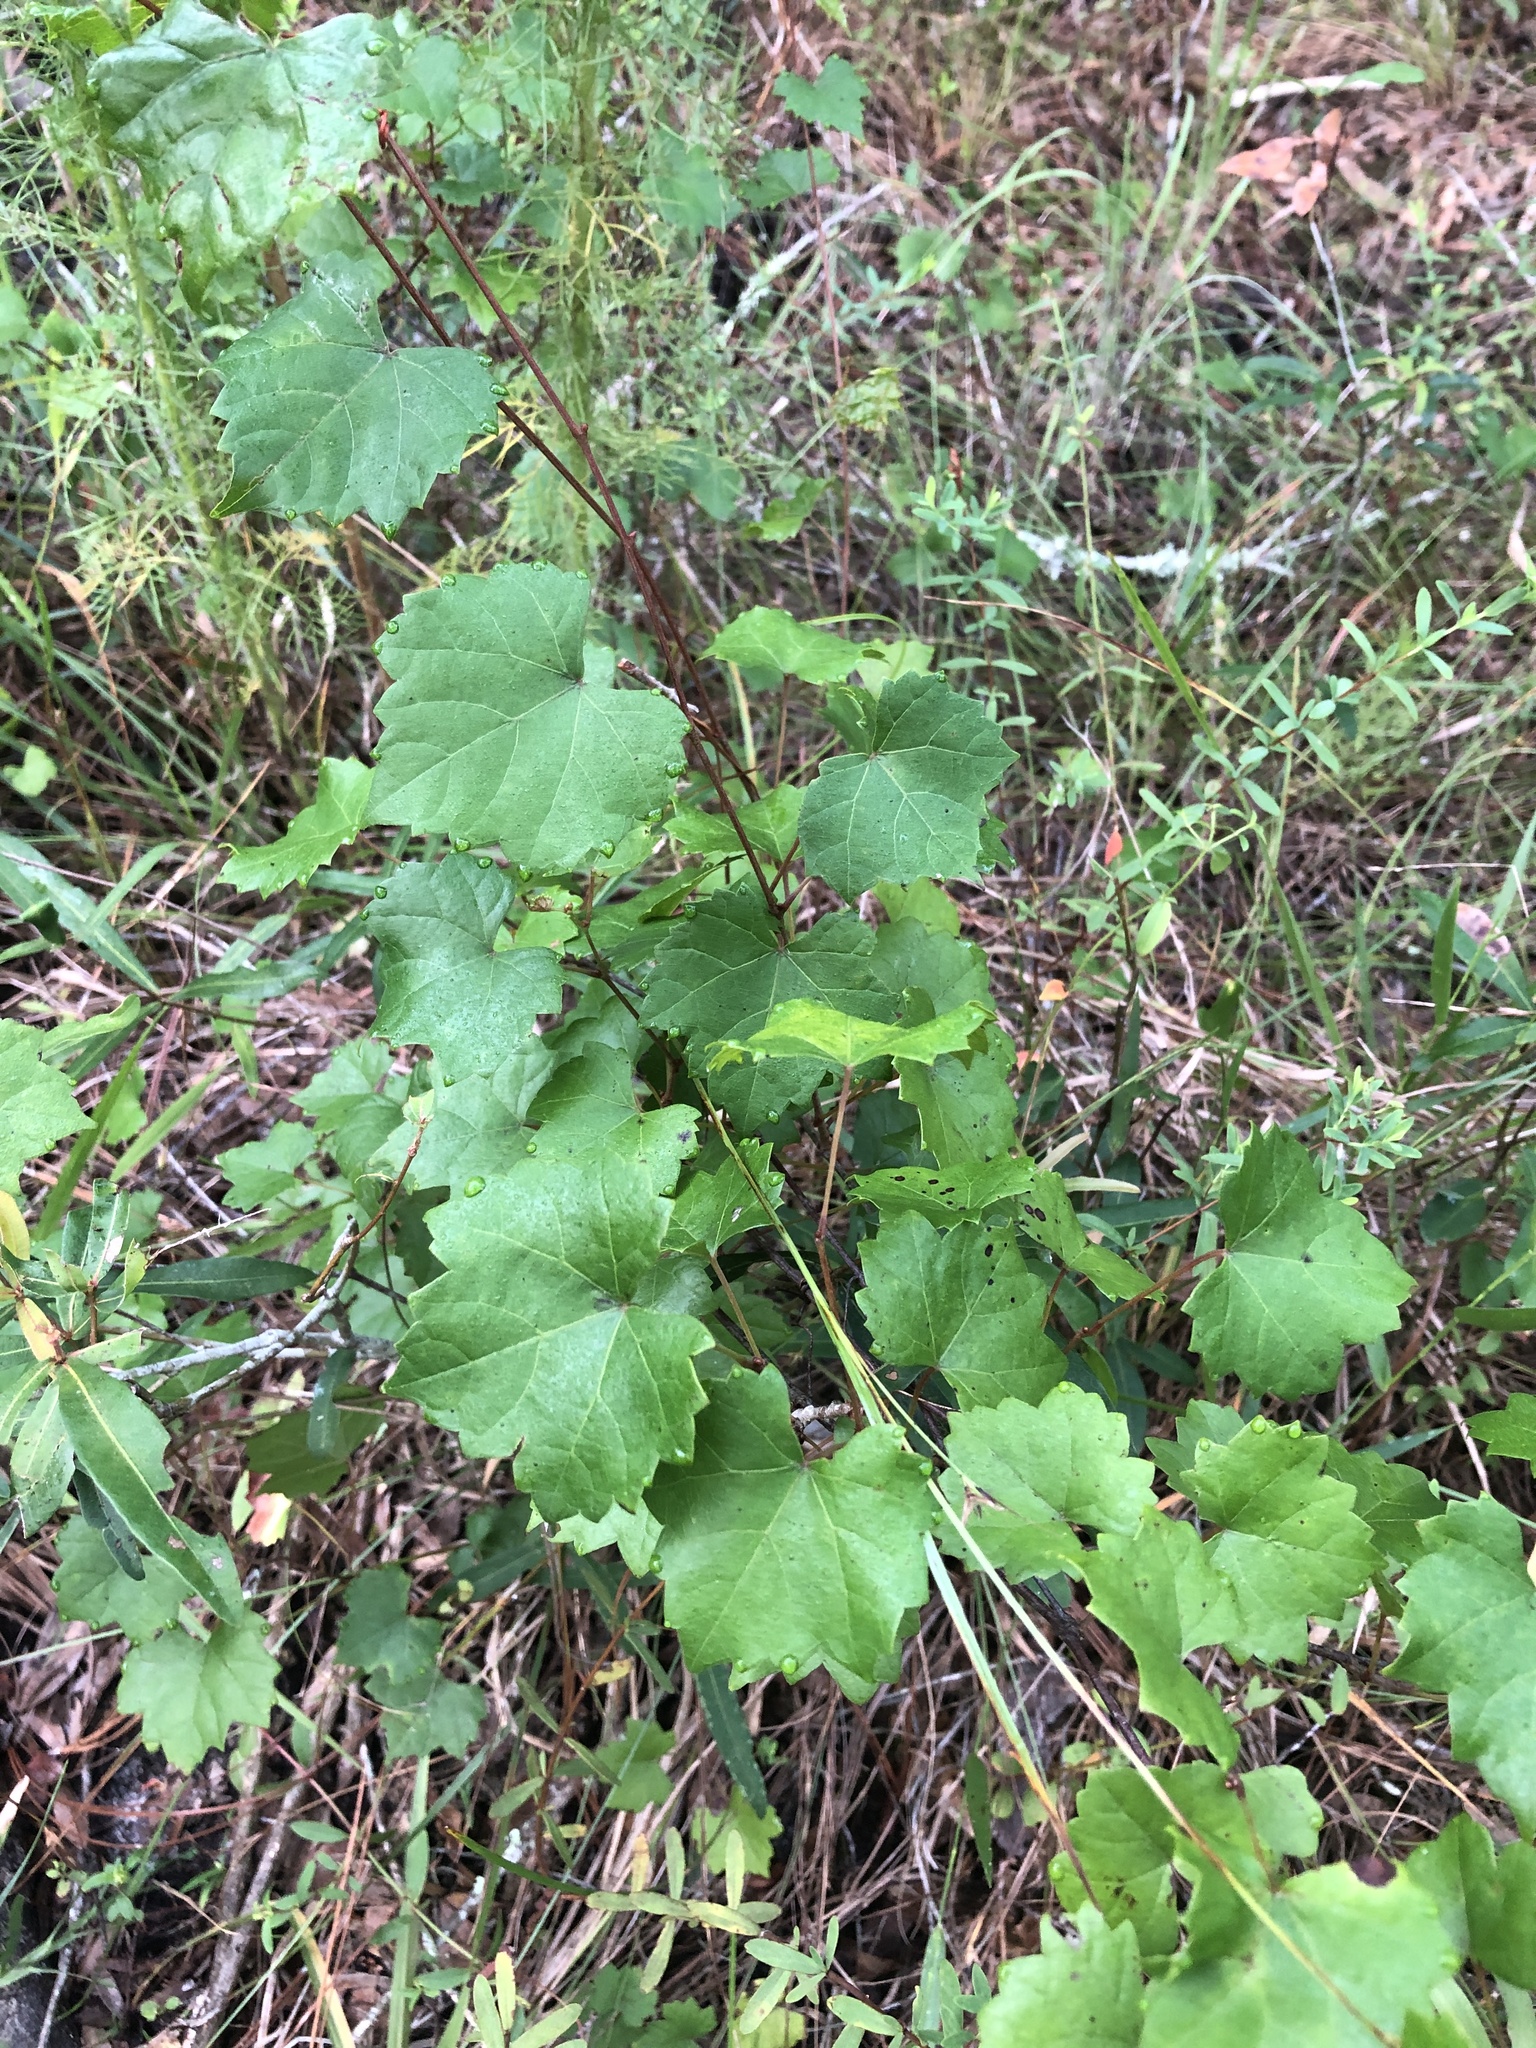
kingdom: Plantae
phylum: Tracheophyta
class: Magnoliopsida
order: Vitales
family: Vitaceae
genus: Vitis
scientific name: Vitis rotundifolia
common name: Muscadine grape
